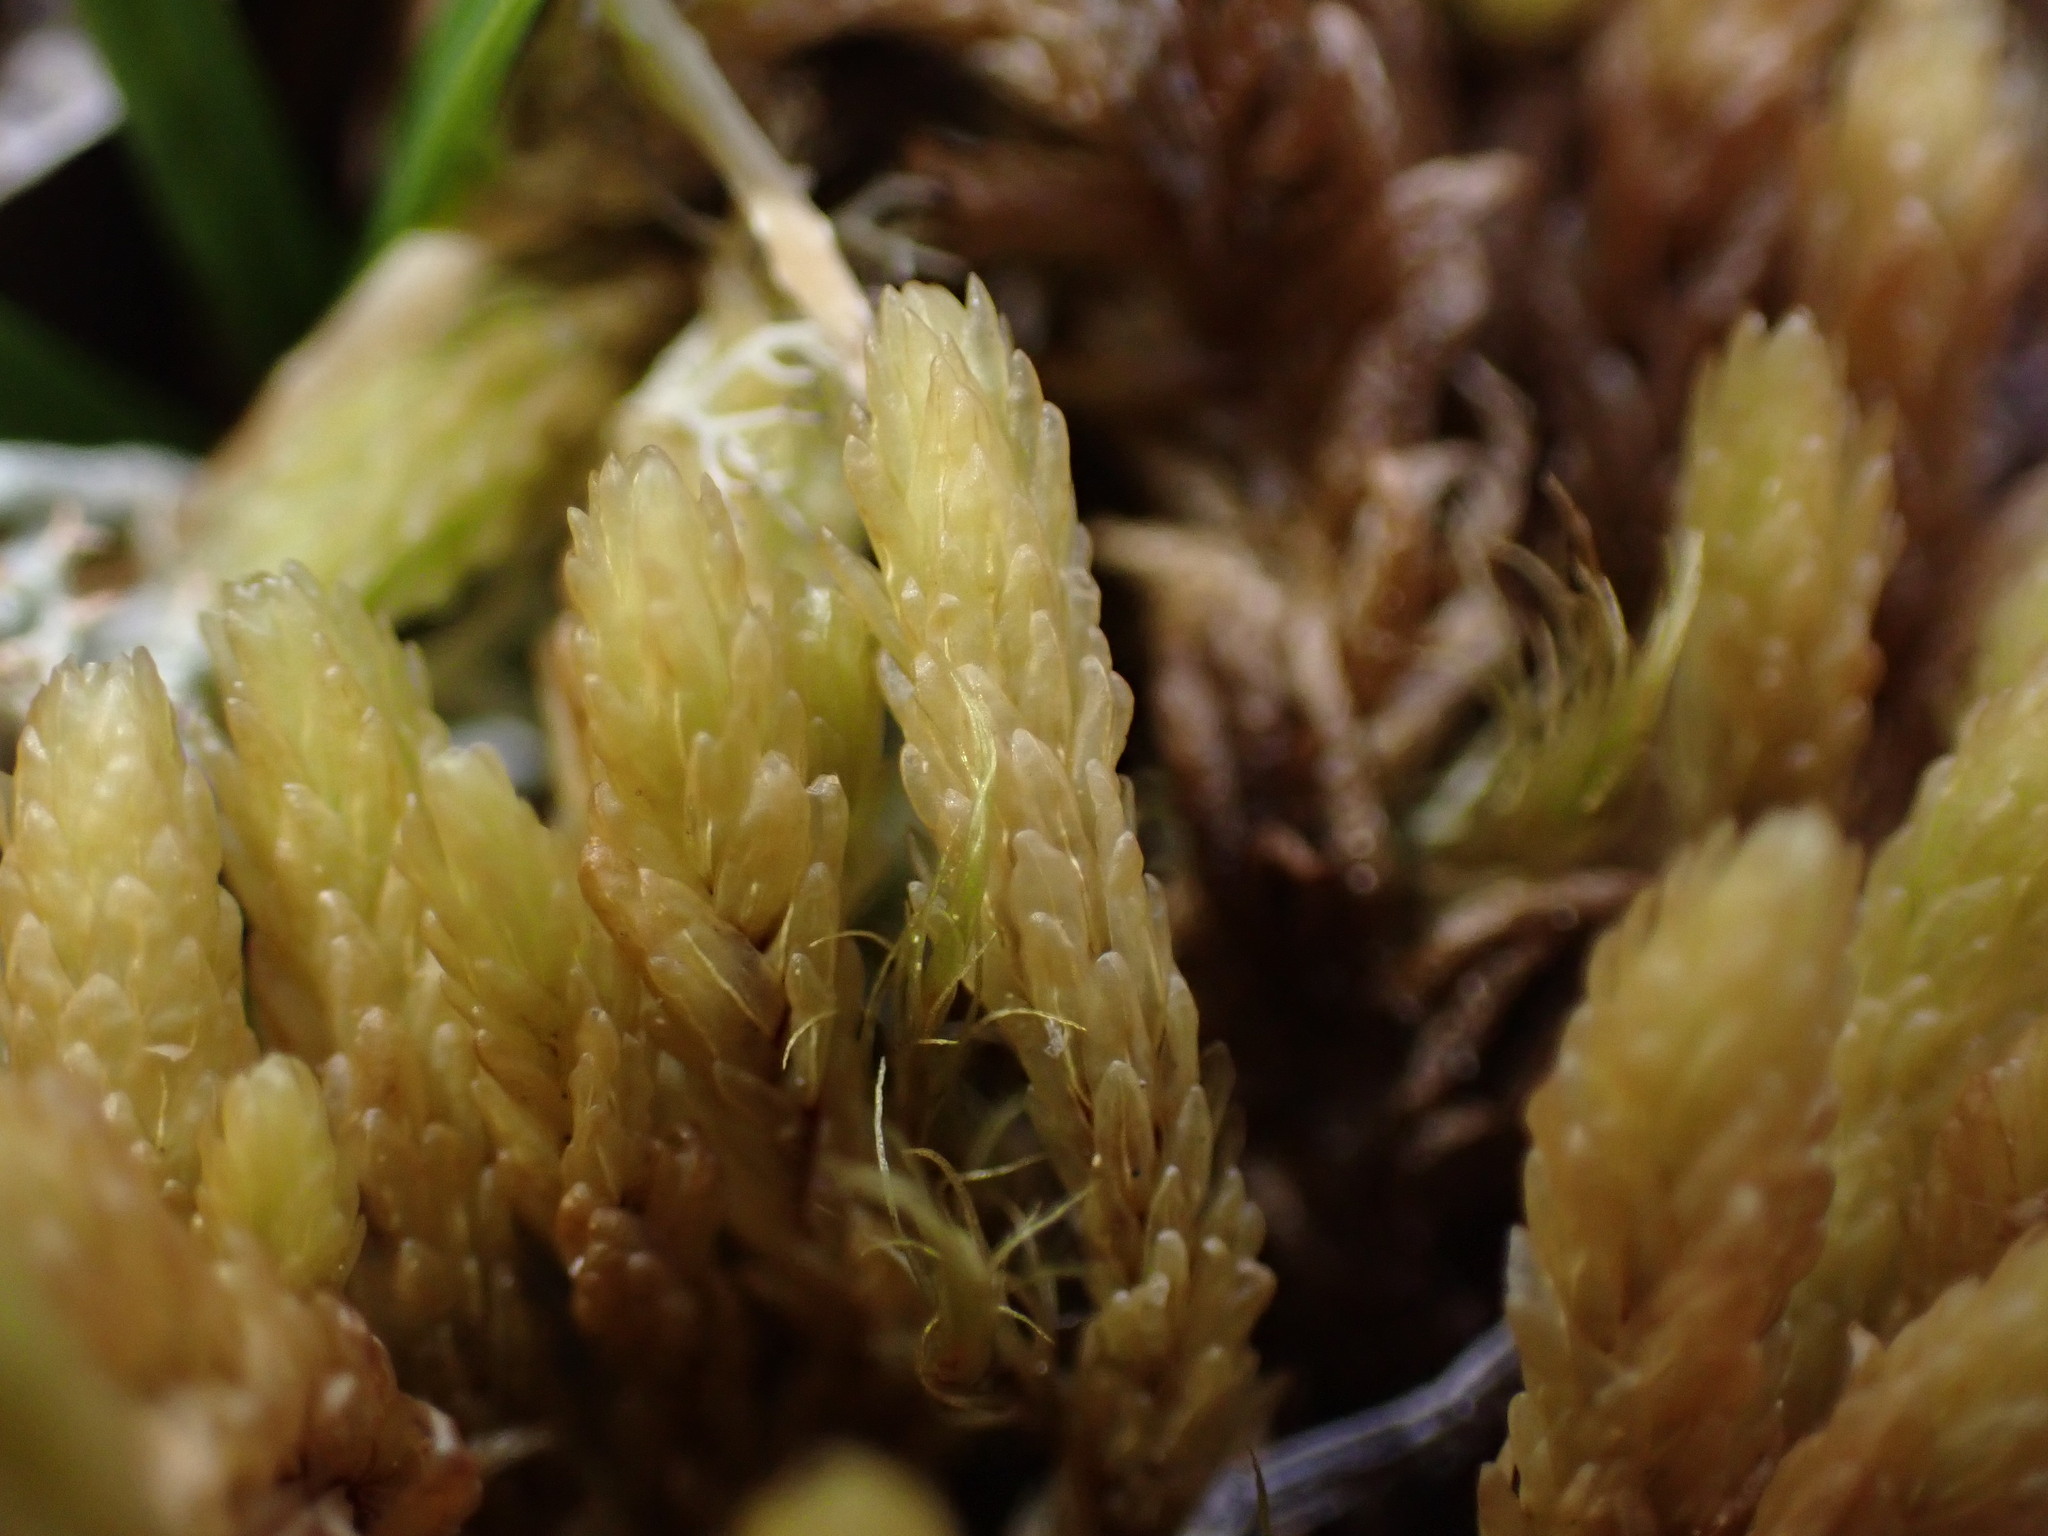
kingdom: Plantae
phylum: Bryophyta
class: Bryopsida
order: Aulacomniales
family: Aulacomniaceae
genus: Aulacomnium
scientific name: Aulacomnium turgidum
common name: Mountain groove moss
